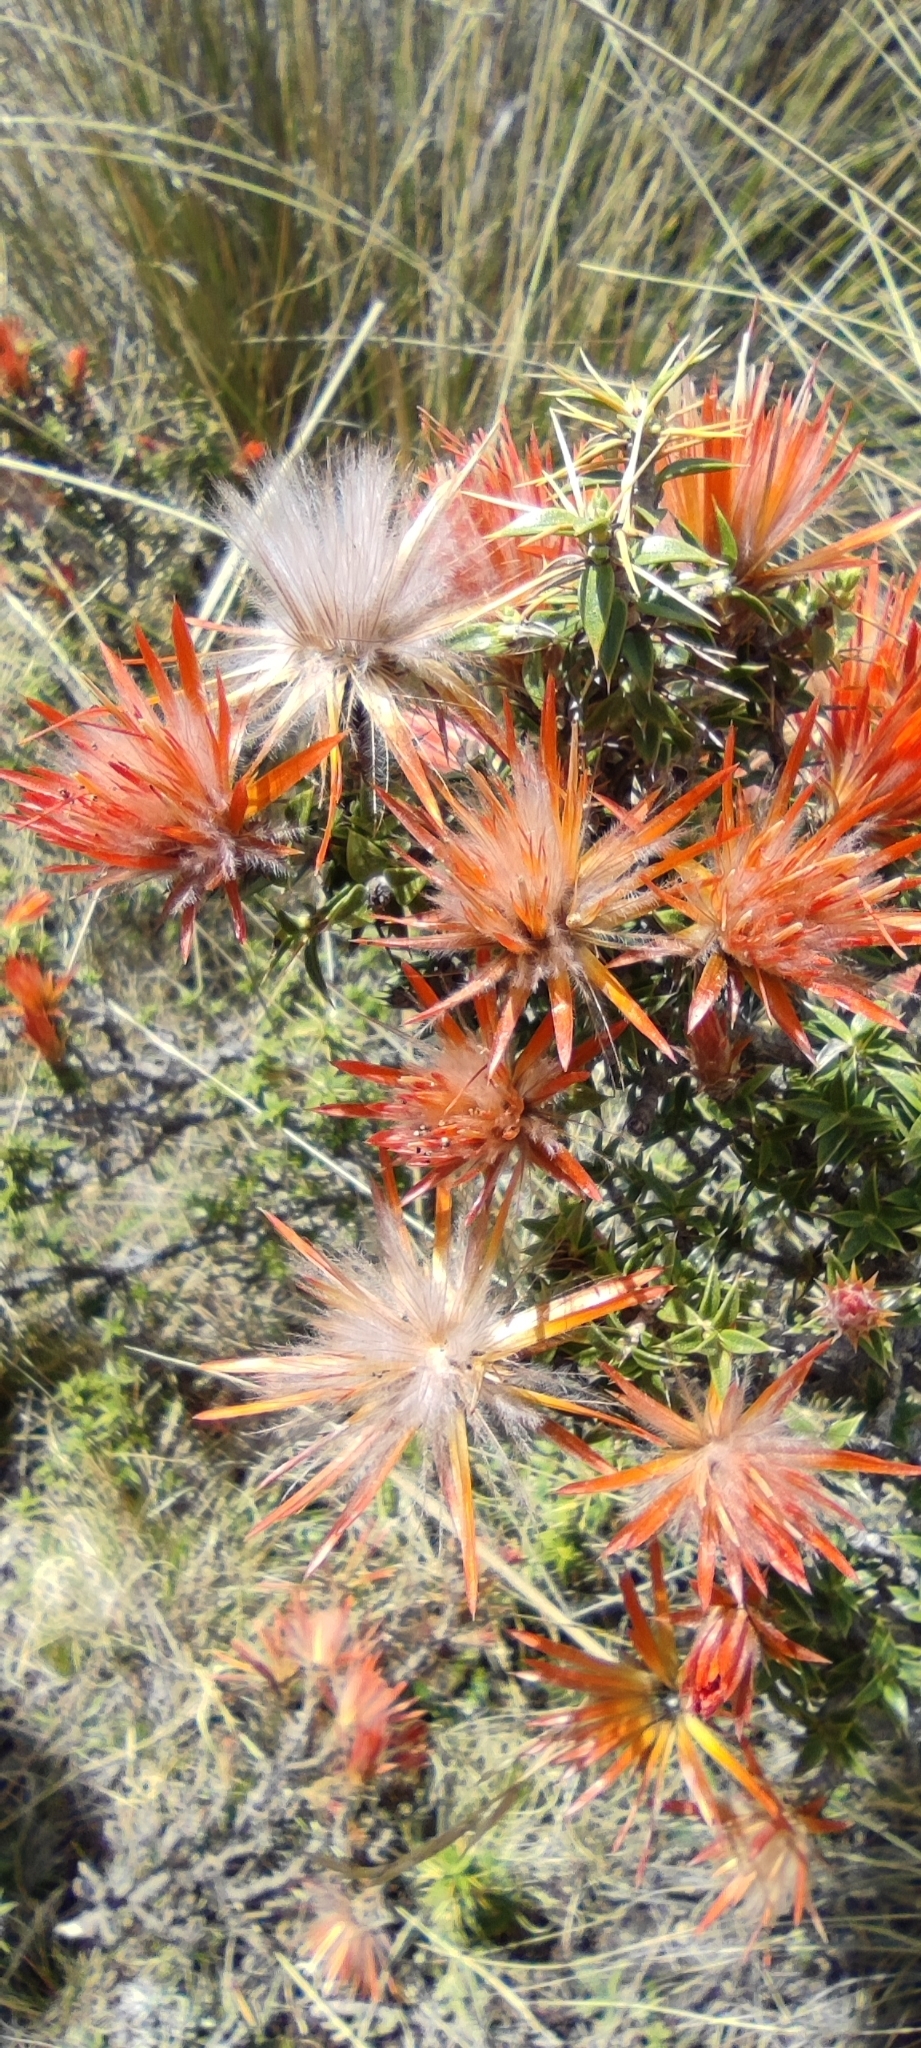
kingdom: Plantae
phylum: Tracheophyta
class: Magnoliopsida
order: Asterales
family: Asteraceae
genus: Chuquiraga
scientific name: Chuquiraga spinosa
